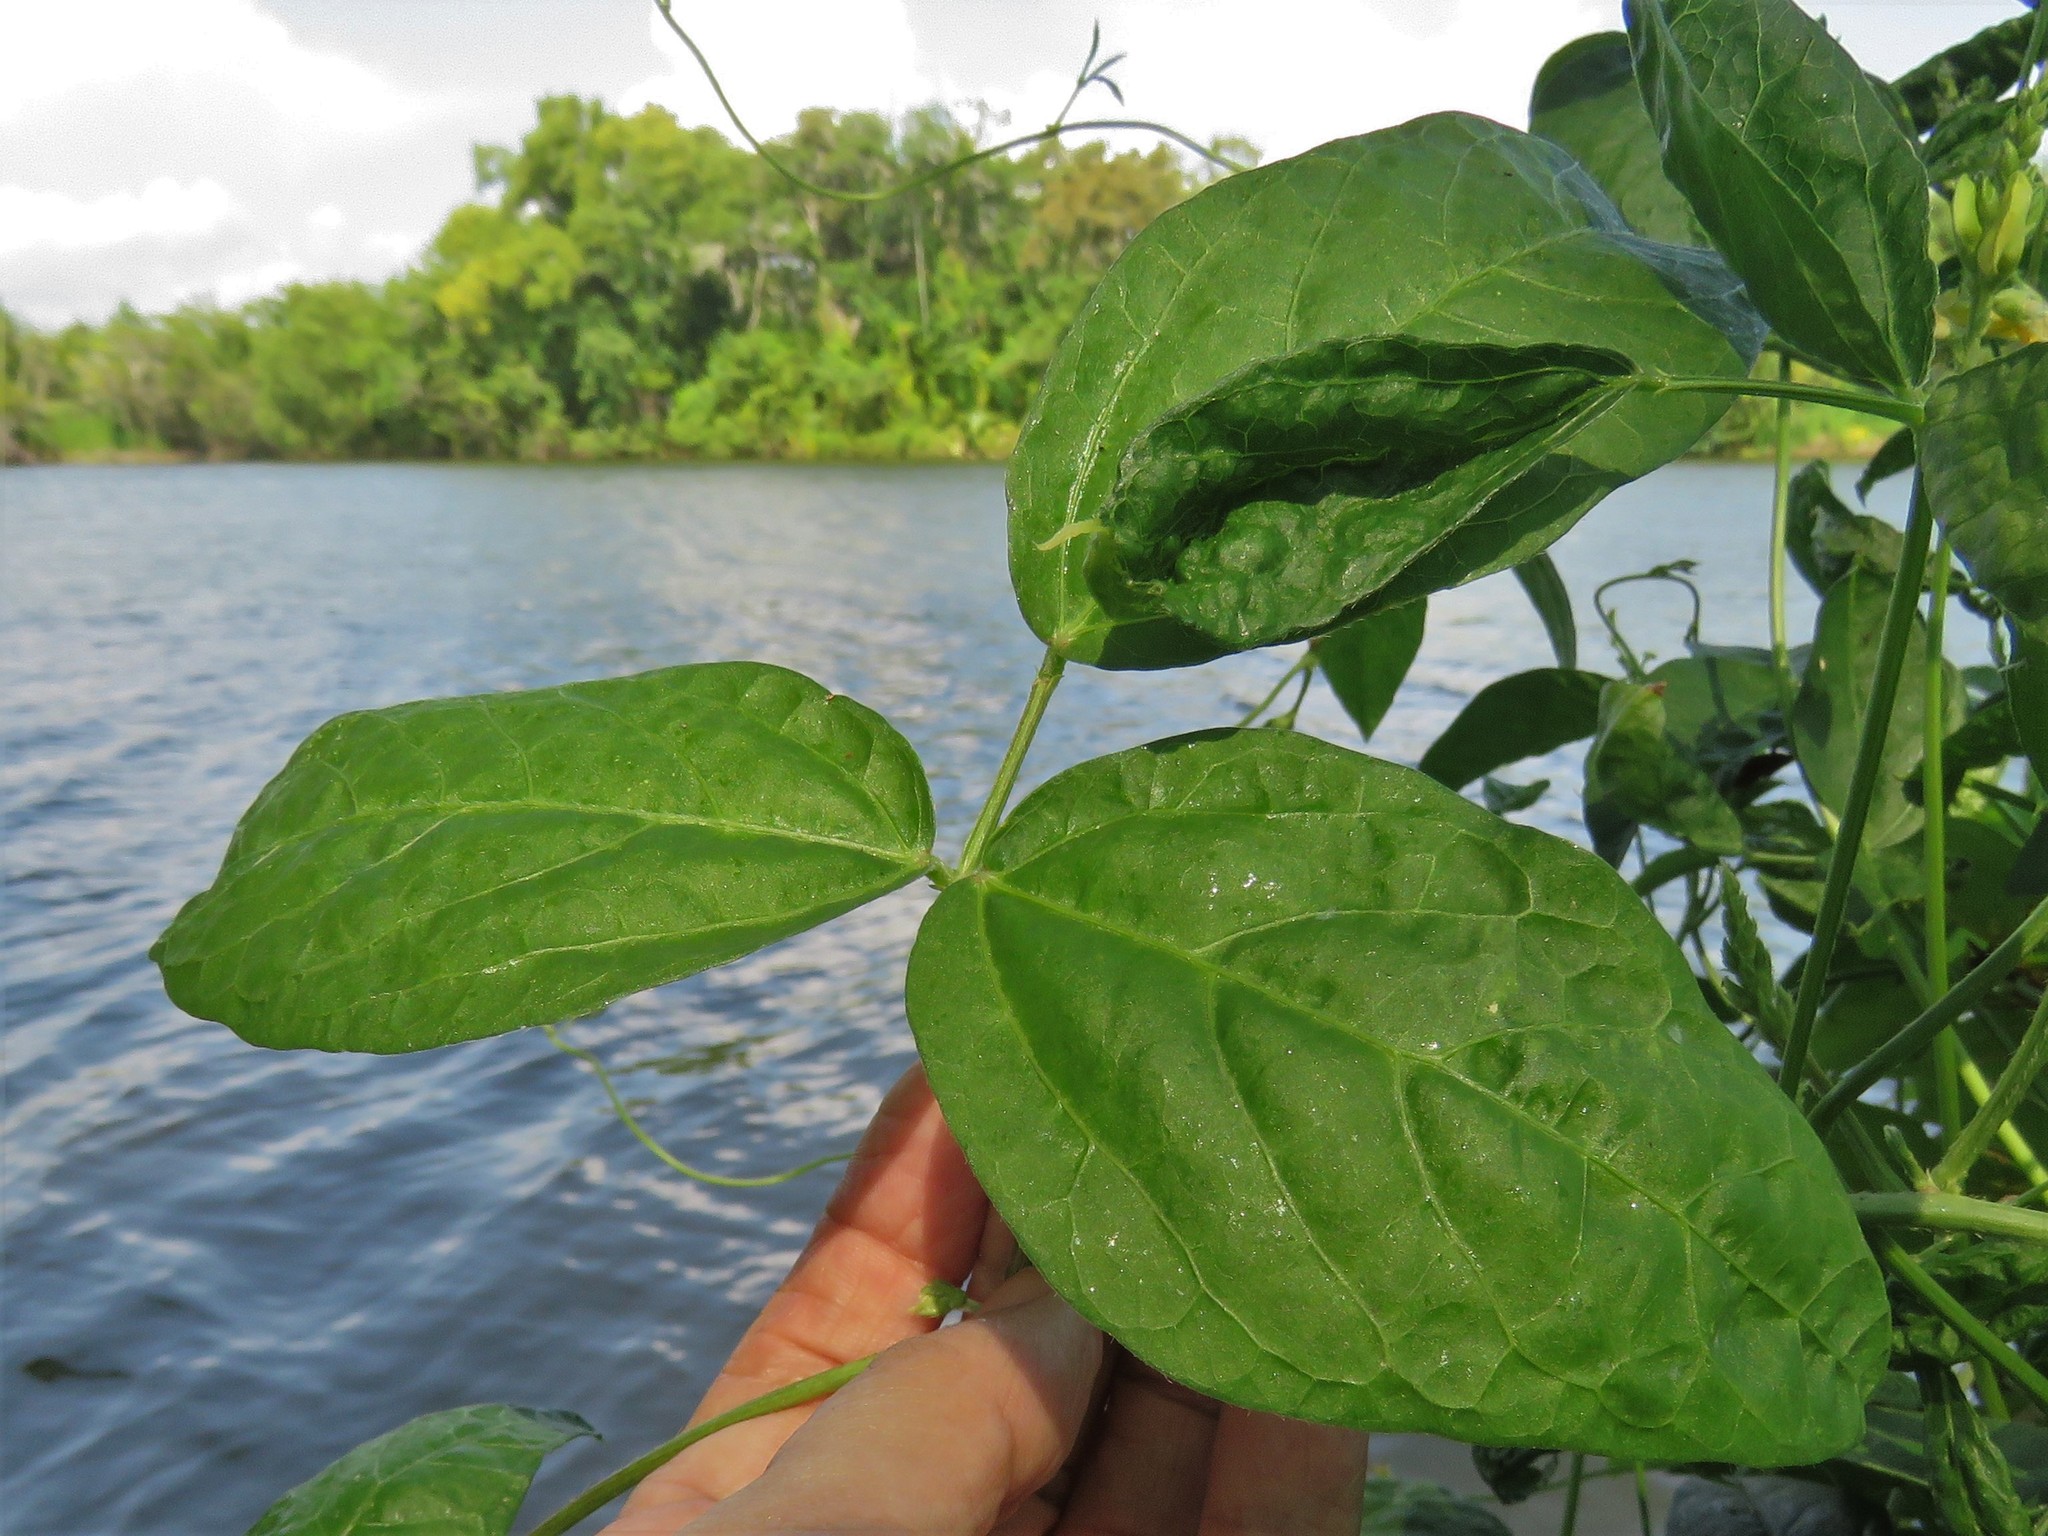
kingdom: Plantae
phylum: Tracheophyta
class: Magnoliopsida
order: Fabales
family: Fabaceae
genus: Vigna
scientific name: Vigna luteola
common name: Hairypod cowpea
